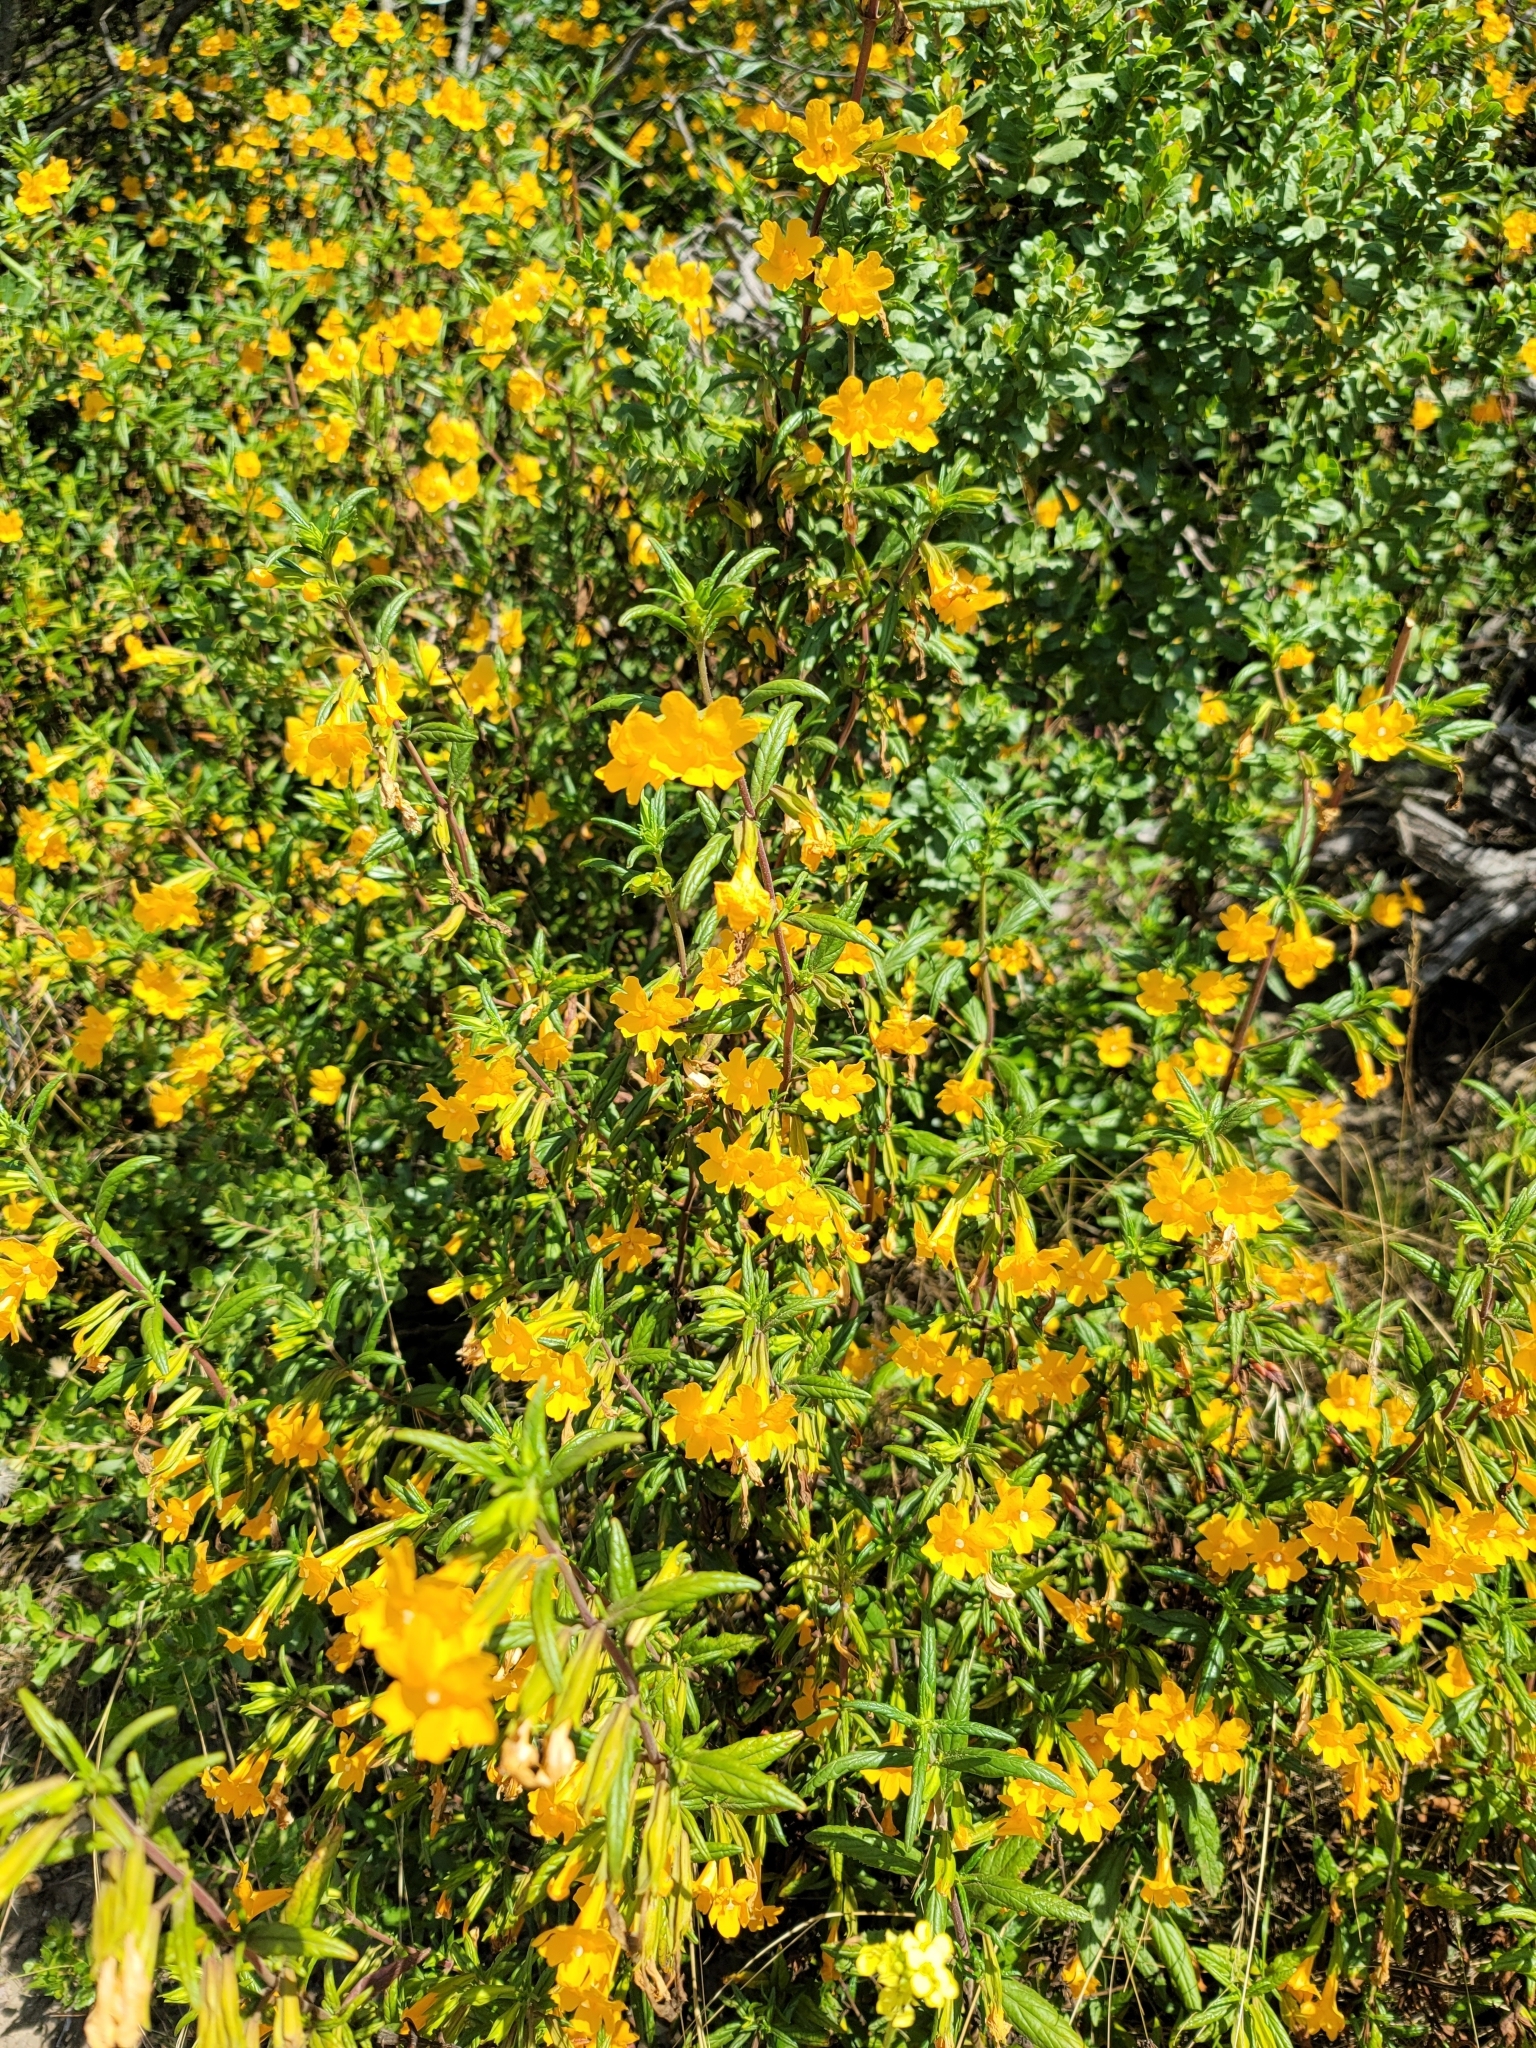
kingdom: Plantae
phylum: Tracheophyta
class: Magnoliopsida
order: Lamiales
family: Phrymaceae
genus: Diplacus
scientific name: Diplacus aurantiacus
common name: Bush monkey-flower
